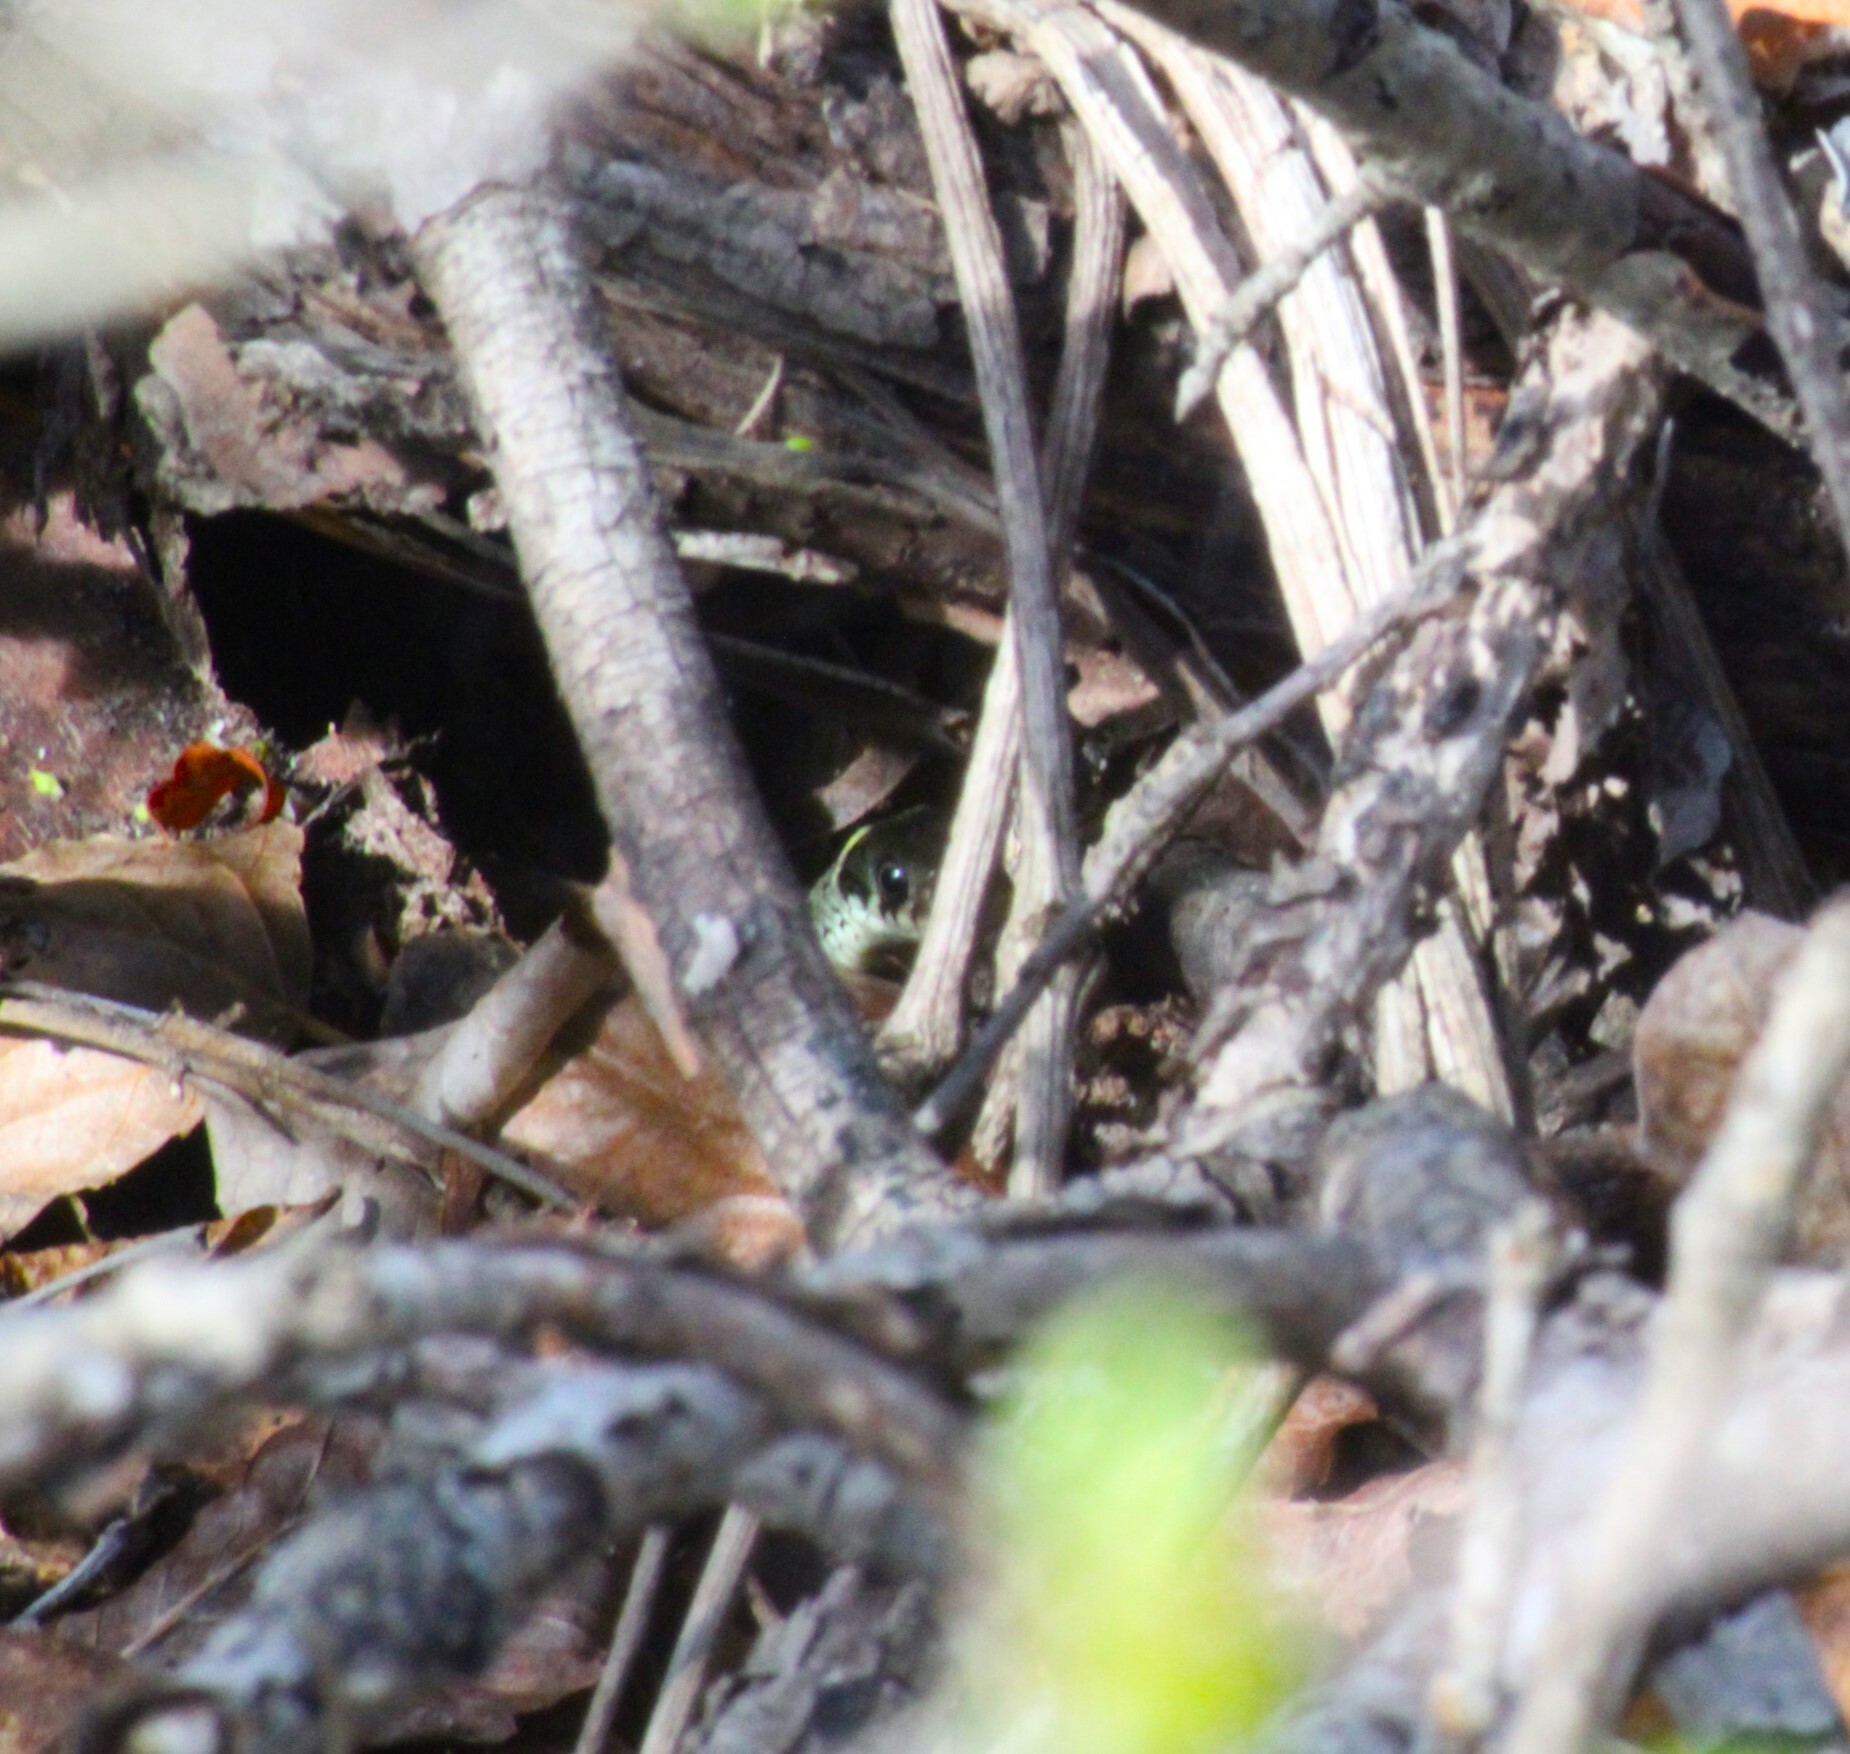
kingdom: Animalia
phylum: Chordata
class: Squamata
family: Colubridae
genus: Natrix
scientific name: Natrix natrix
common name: Grass snake
